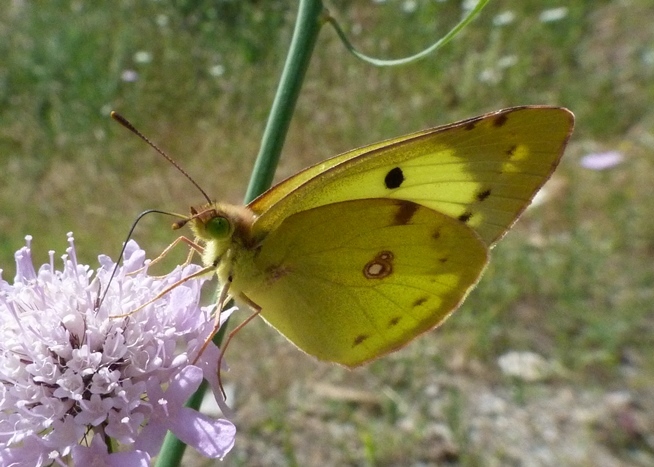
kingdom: Animalia
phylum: Arthropoda
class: Insecta
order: Lepidoptera
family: Pieridae
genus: Colias
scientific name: Colias alfacariensis
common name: Berger's clouded yellow
